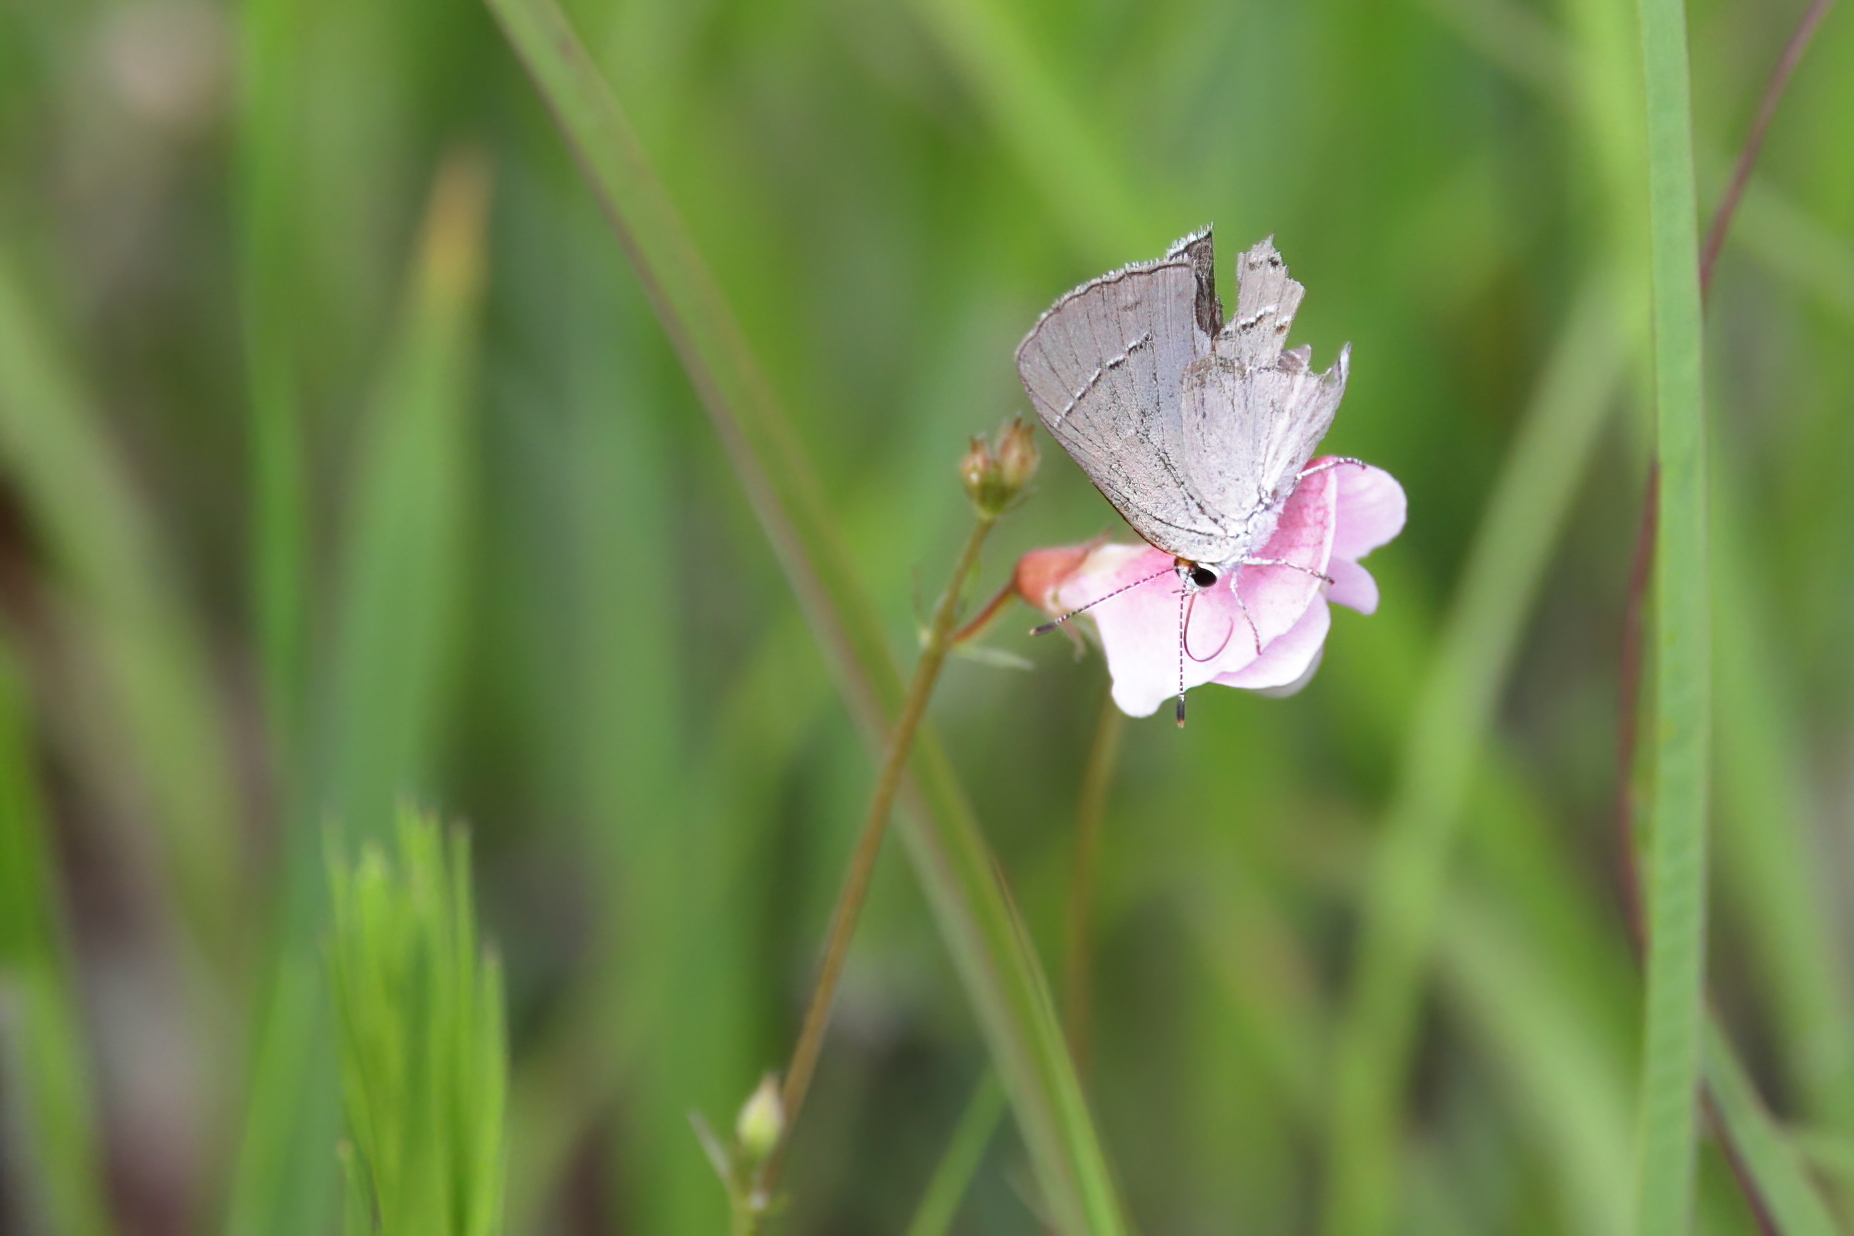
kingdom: Animalia
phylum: Arthropoda
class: Insecta
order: Lepidoptera
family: Lycaenidae
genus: Strymon
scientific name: Strymon melinus
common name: Gray hairstreak
